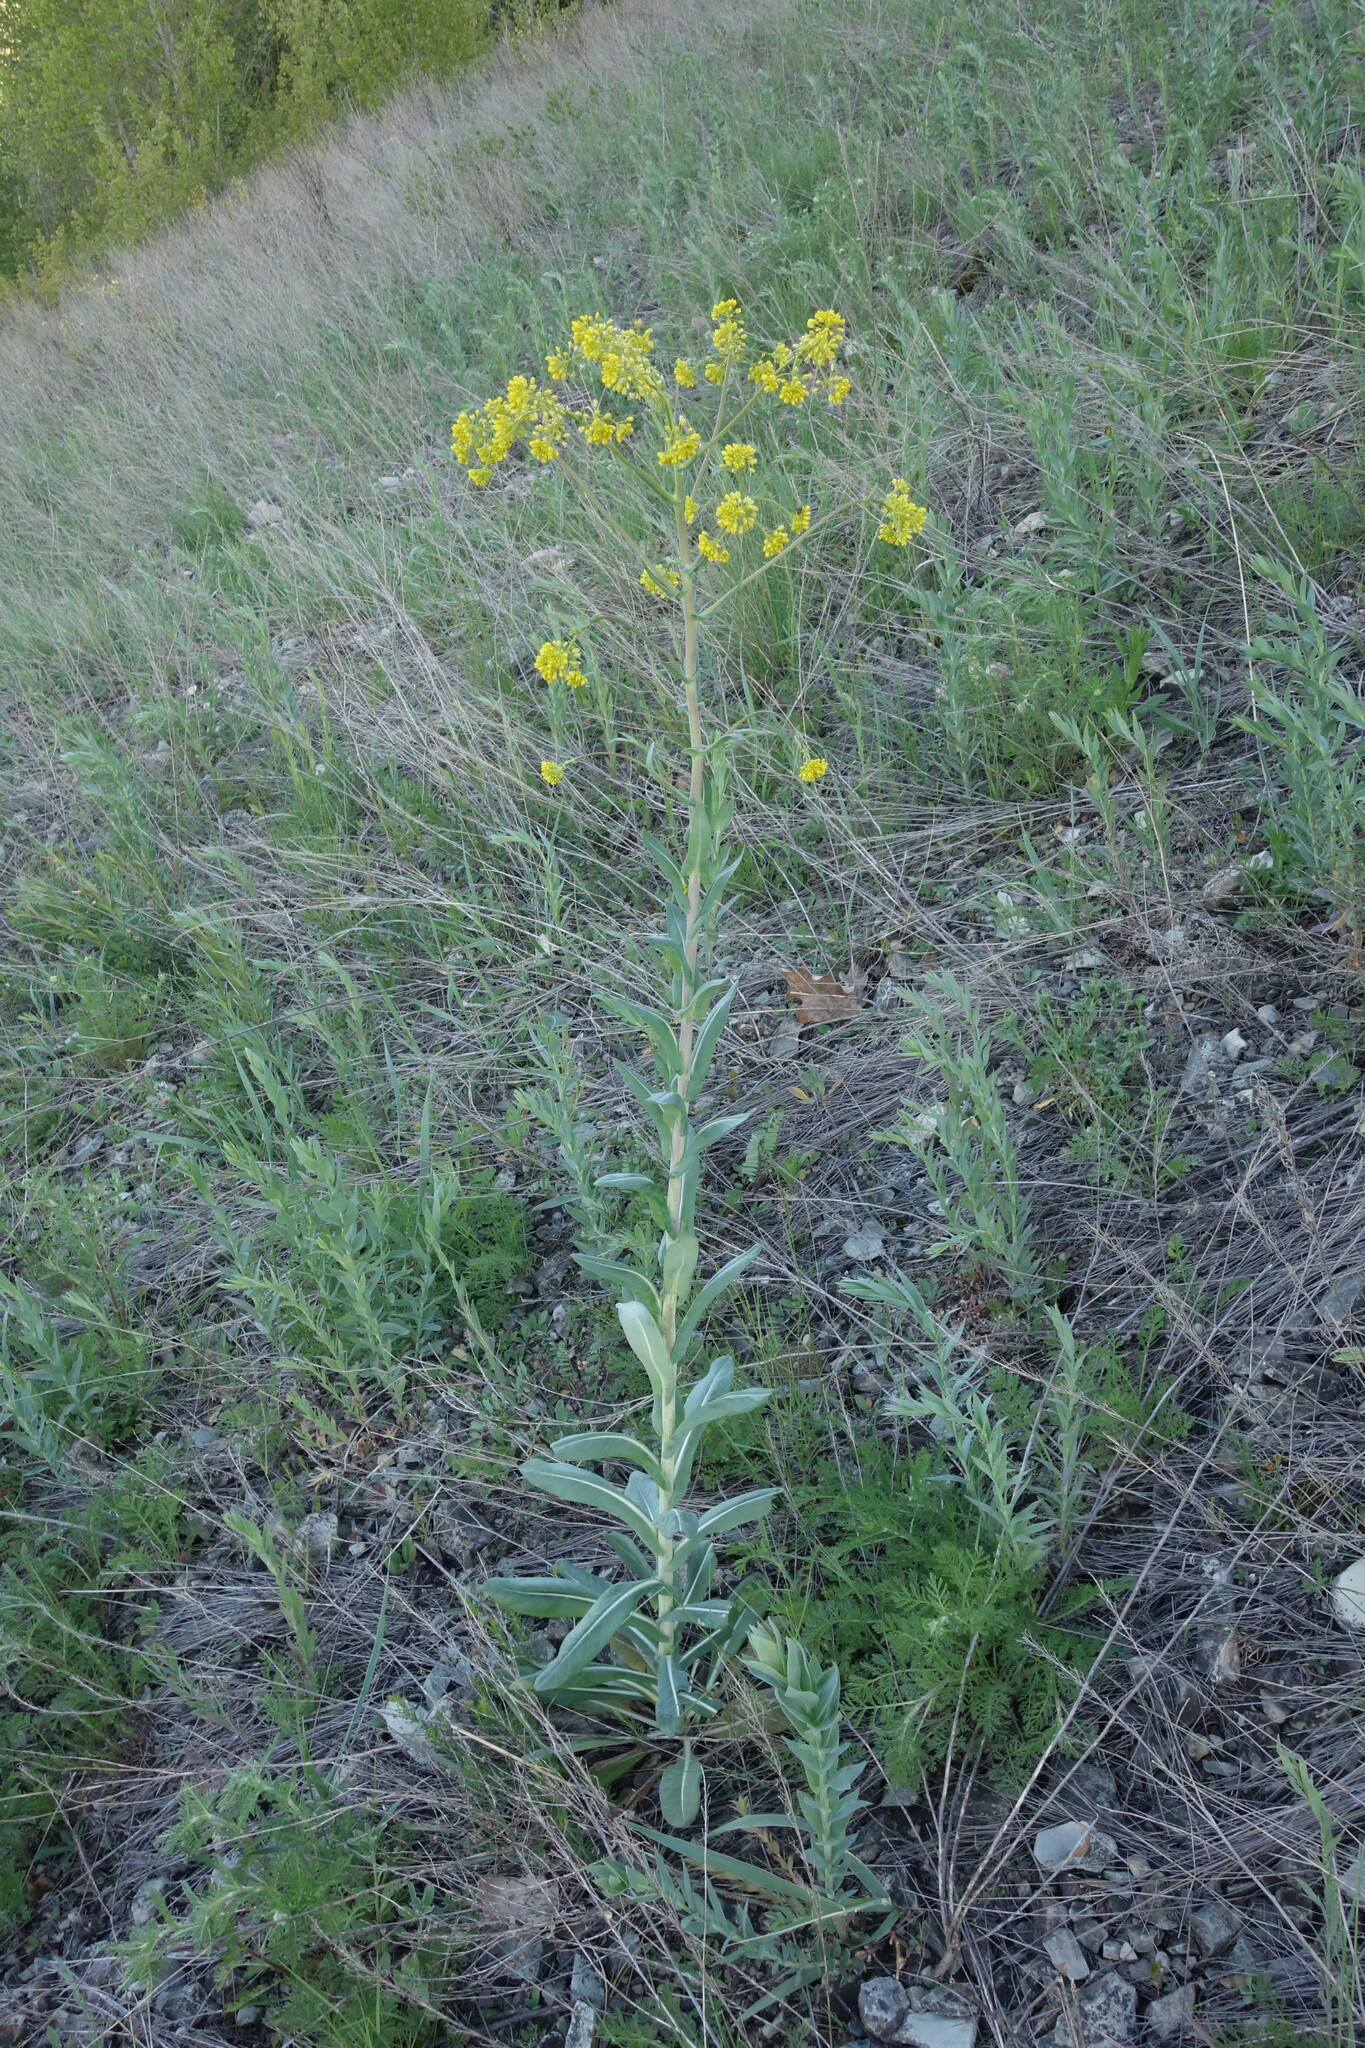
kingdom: Plantae
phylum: Tracheophyta
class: Magnoliopsida
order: Brassicales
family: Brassicaceae
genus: Isatis
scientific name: Isatis costata
